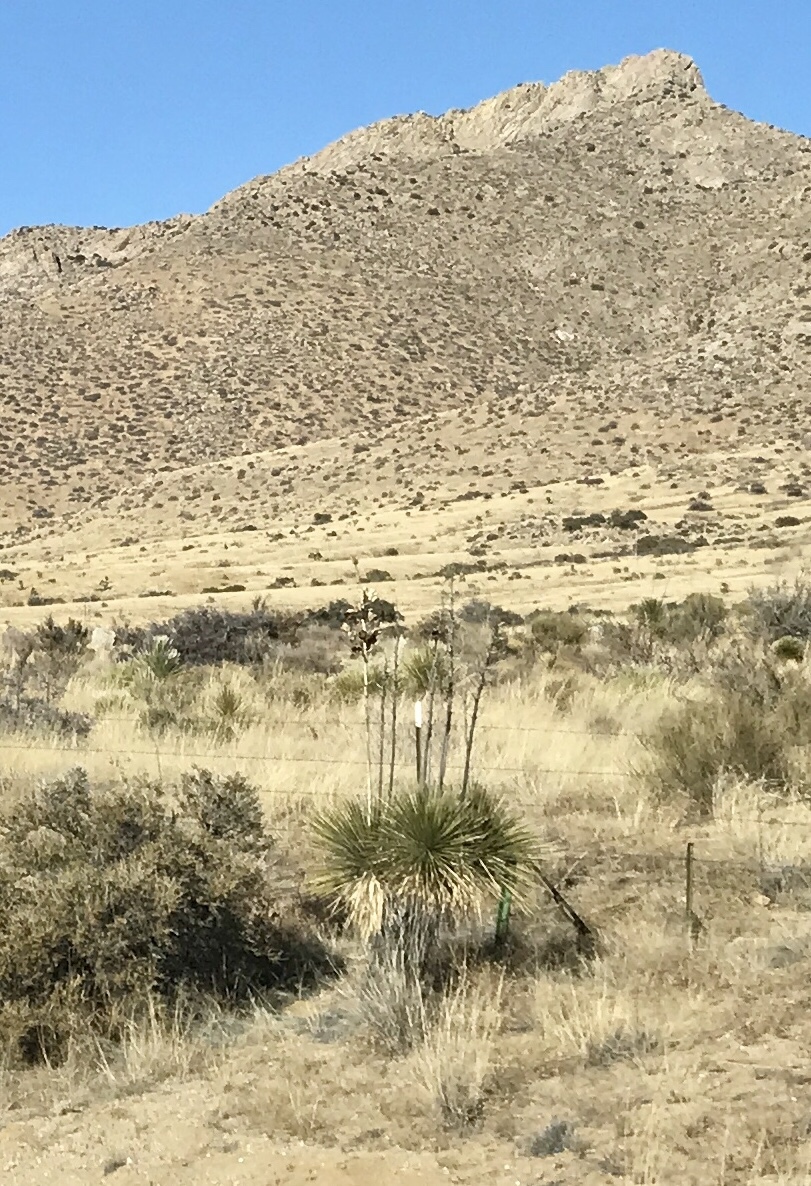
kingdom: Plantae
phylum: Tracheophyta
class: Liliopsida
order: Asparagales
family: Asparagaceae
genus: Yucca
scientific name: Yucca elata
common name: Palmella
